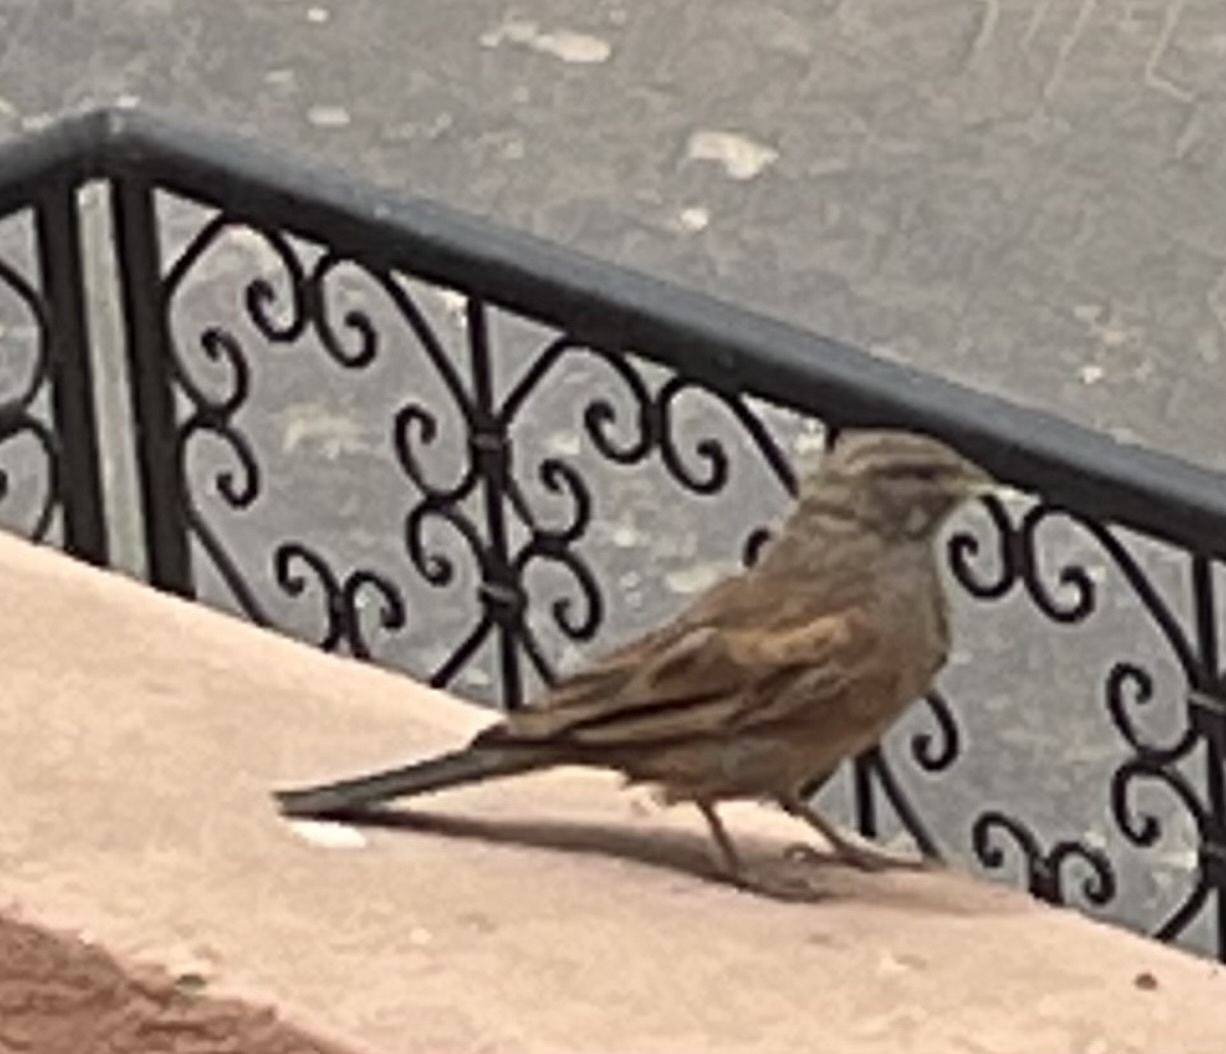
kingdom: Animalia
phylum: Chordata
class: Aves
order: Passeriformes
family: Emberizidae
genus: Emberiza
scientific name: Emberiza sahari
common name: House bunting
